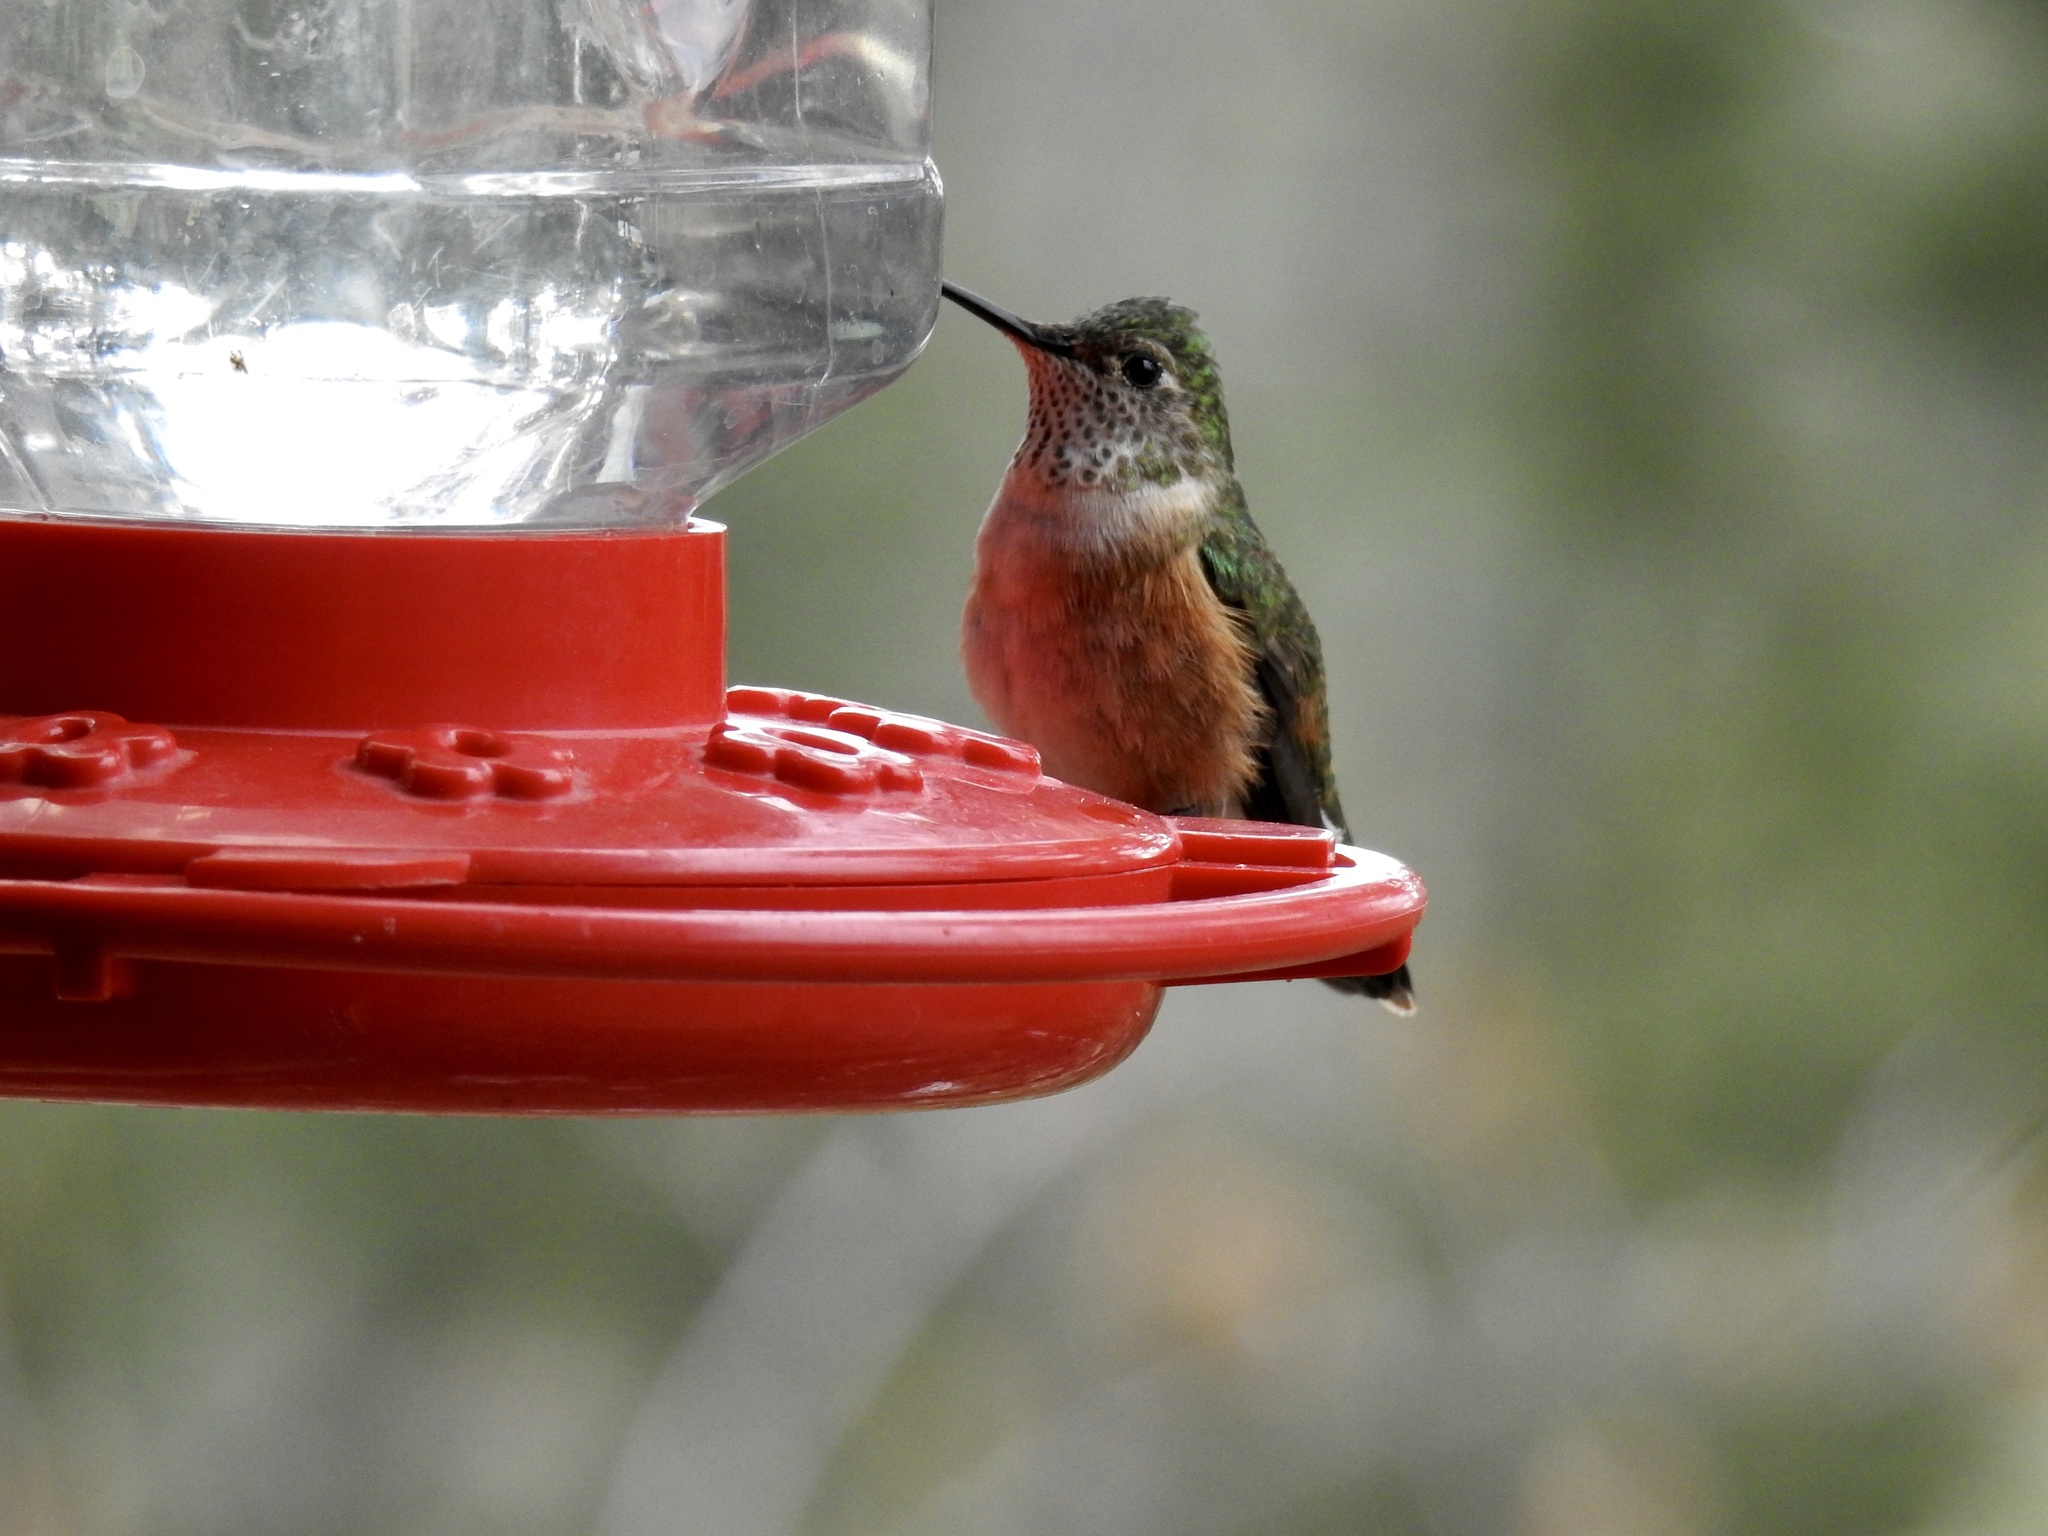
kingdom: Animalia
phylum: Chordata
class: Aves
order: Apodiformes
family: Trochilidae
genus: Selasphorus
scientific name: Selasphorus platycercus
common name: Broad-tailed hummingbird
